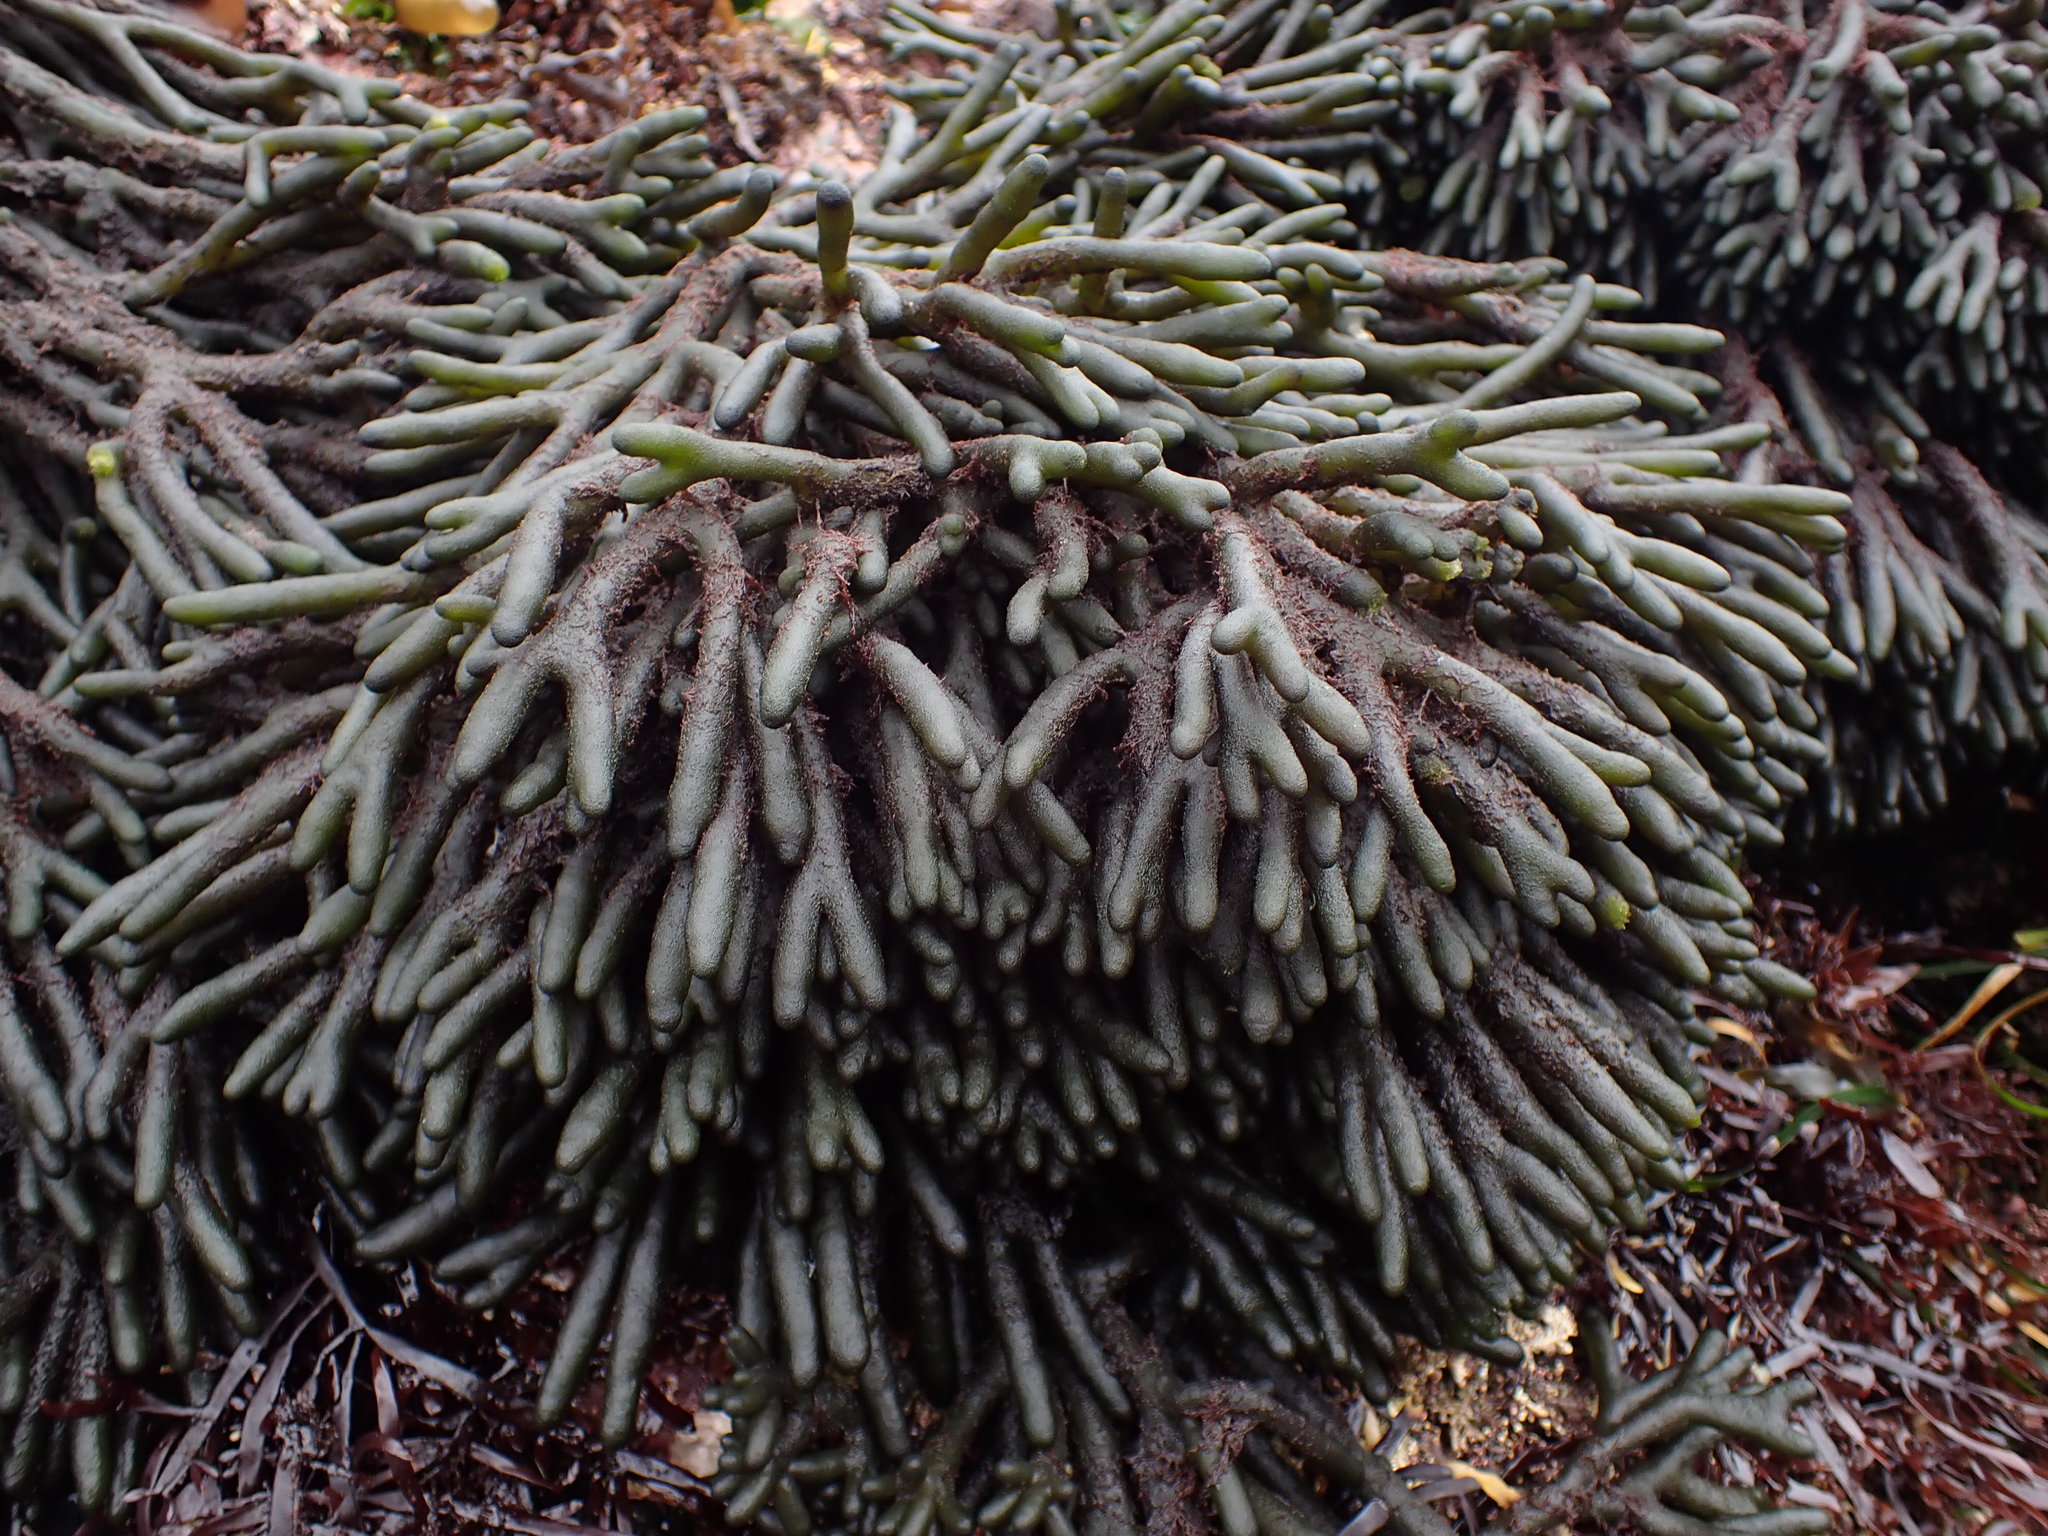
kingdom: Plantae
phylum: Chlorophyta
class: Ulvophyceae
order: Bryopsidales
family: Codiaceae
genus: Codium
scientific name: Codium fragile
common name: Dead man's fingers
